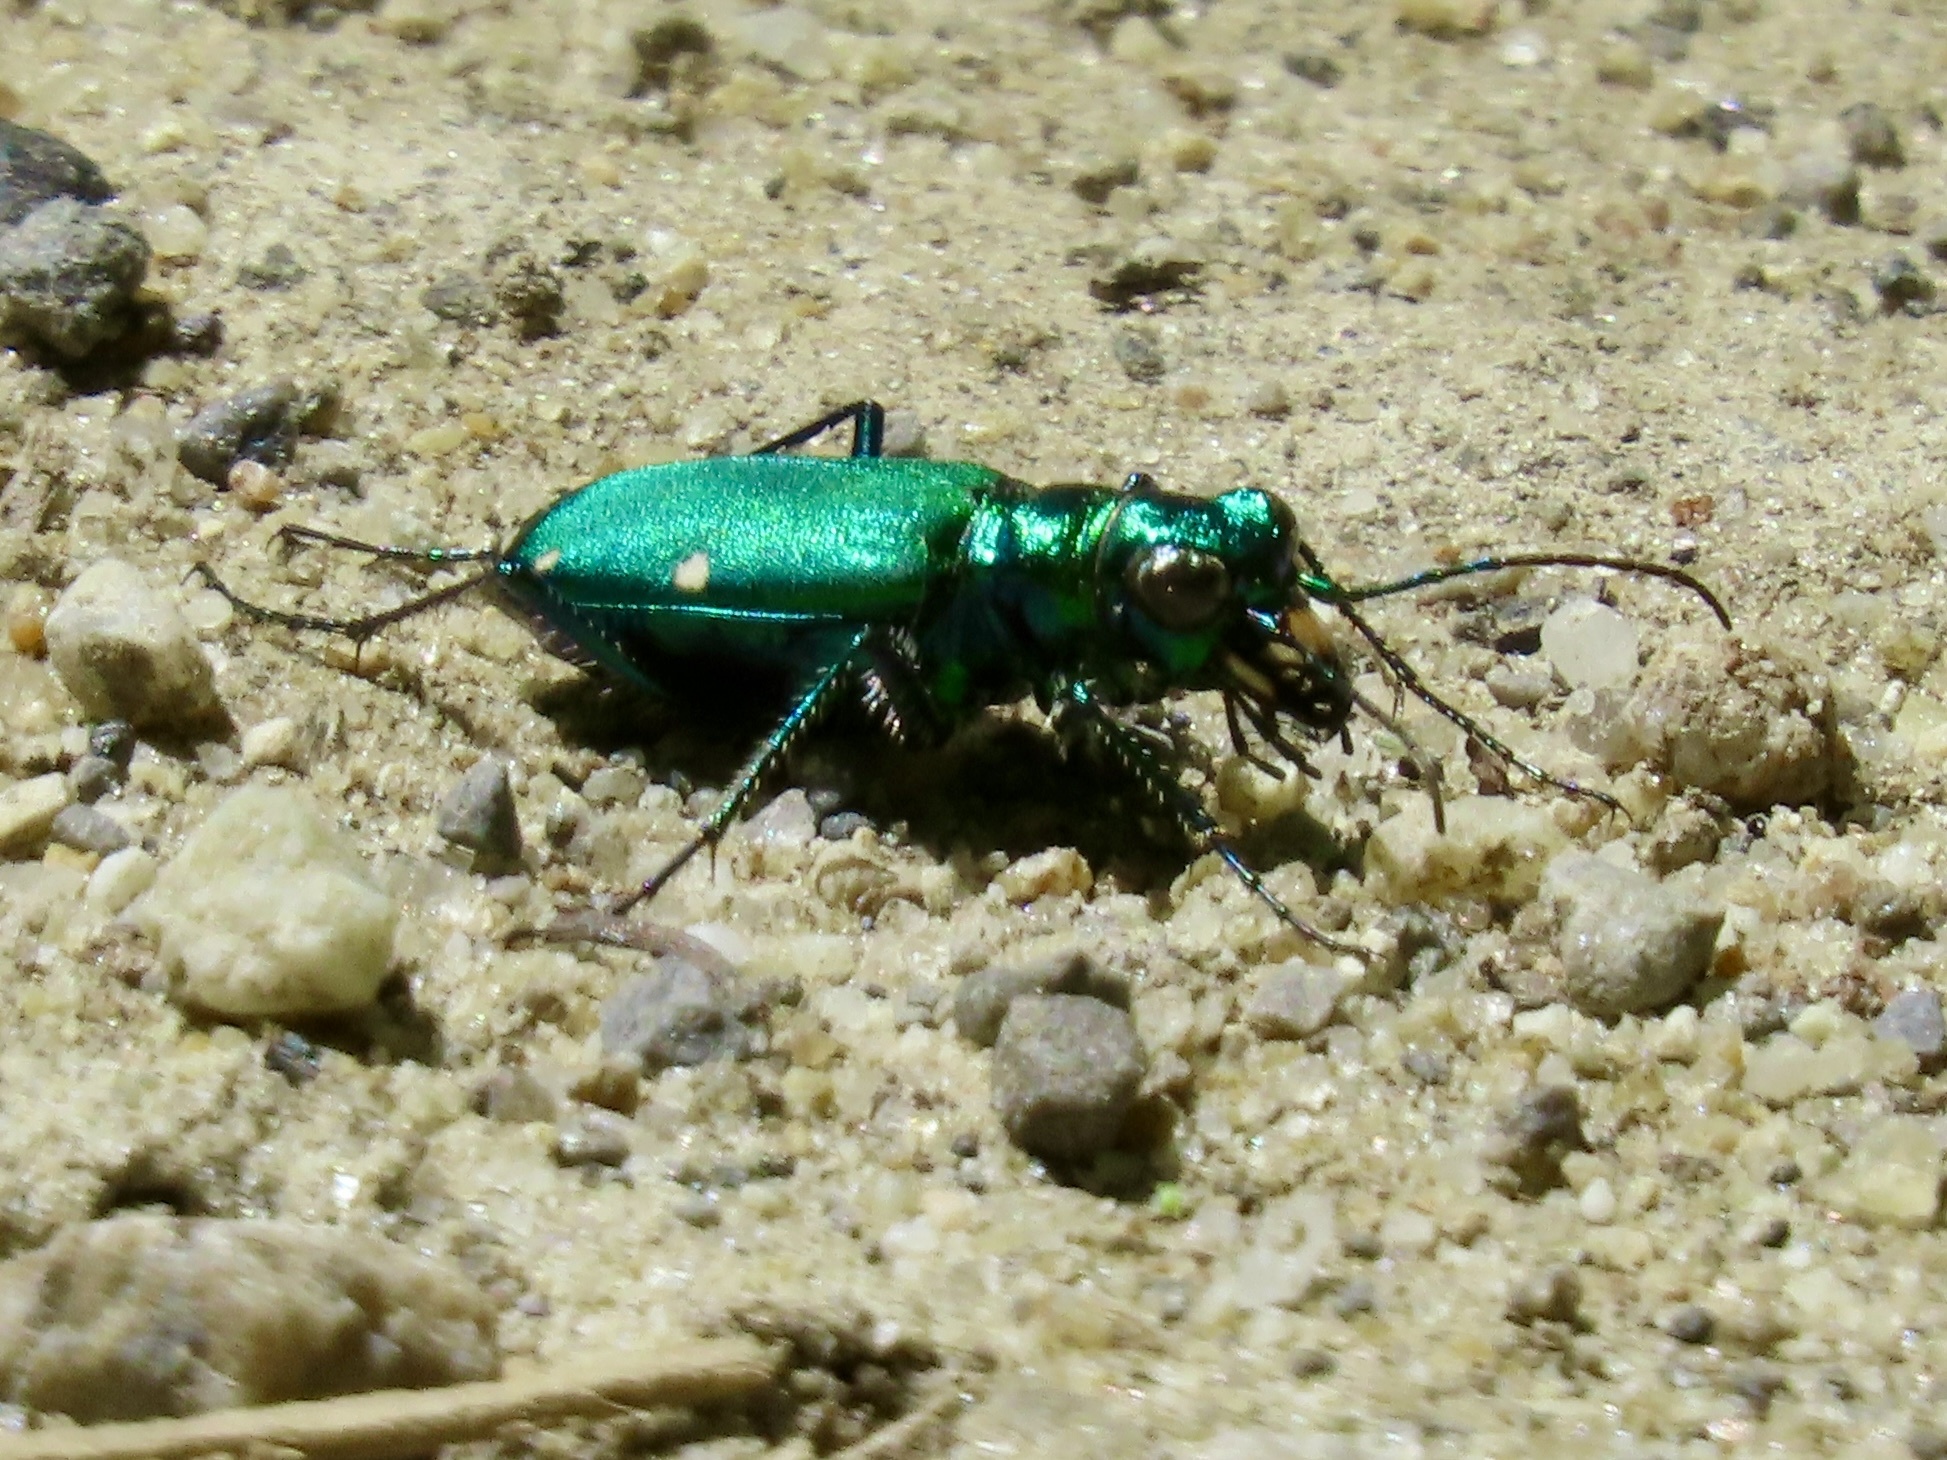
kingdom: Animalia
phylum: Arthropoda
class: Insecta
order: Coleoptera
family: Carabidae
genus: Cicindela
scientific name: Cicindela sexguttata
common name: Six-spotted tiger beetle
